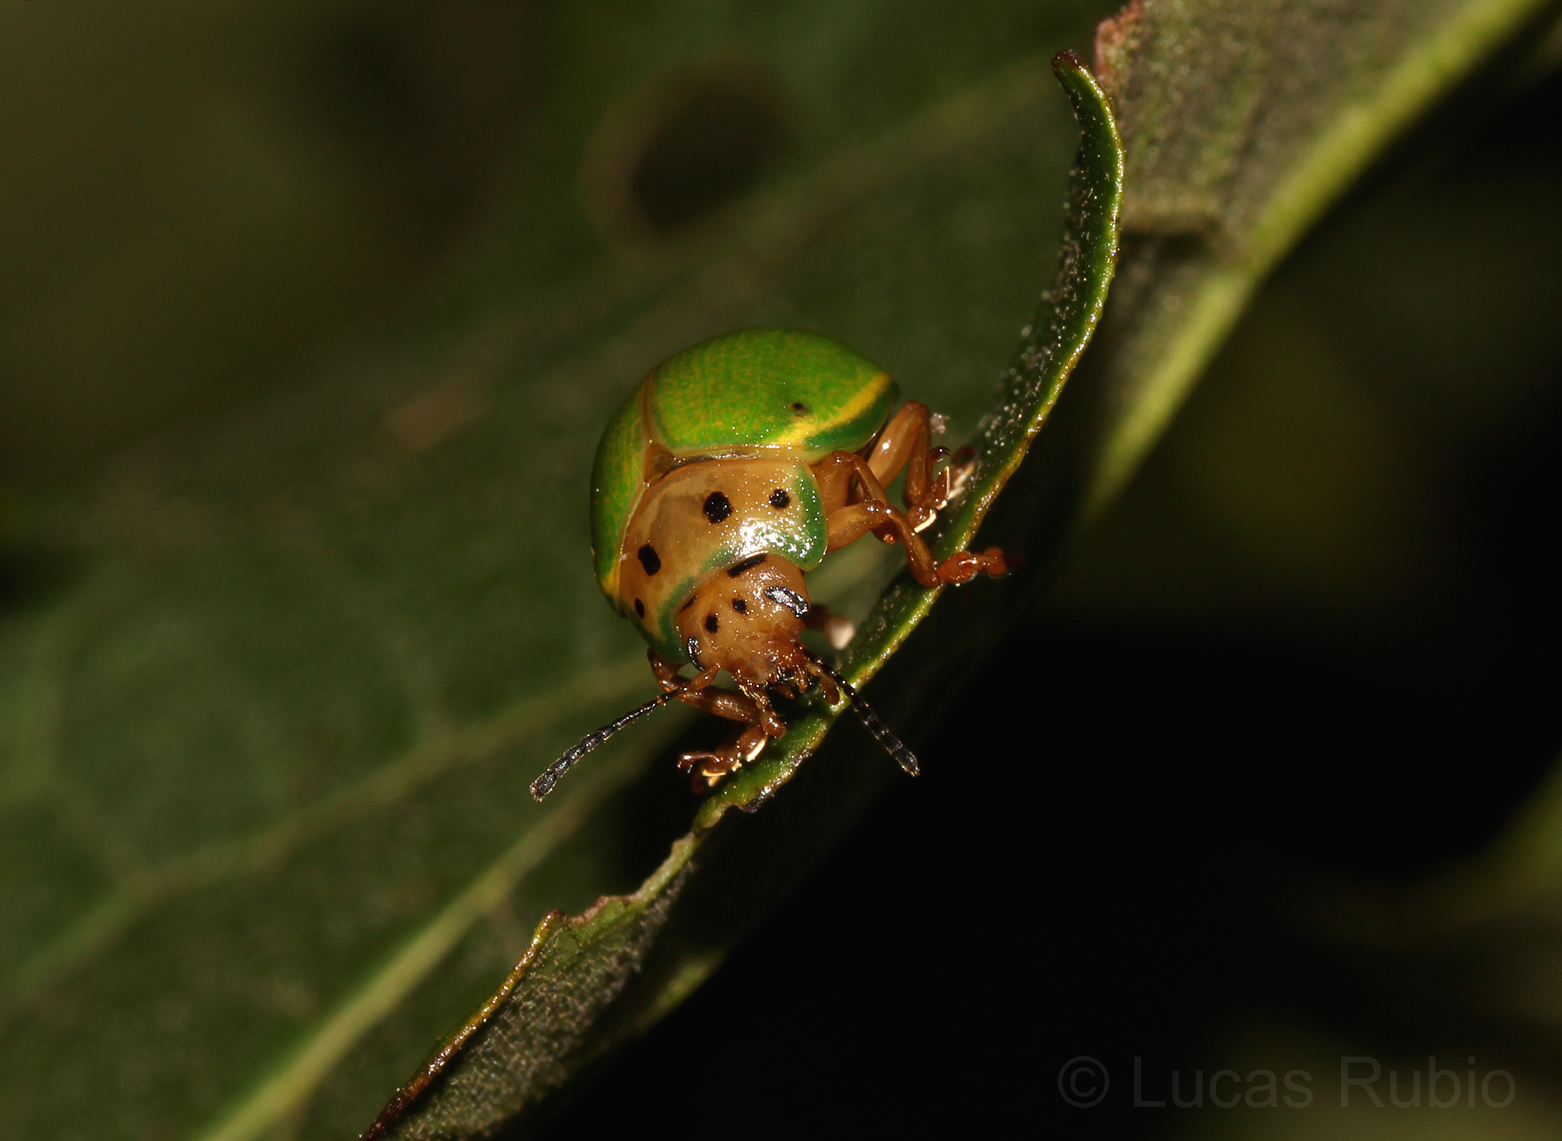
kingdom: Animalia
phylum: Arthropoda
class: Insecta
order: Coleoptera
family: Chrysomelidae
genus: Platyphora
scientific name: Platyphora
